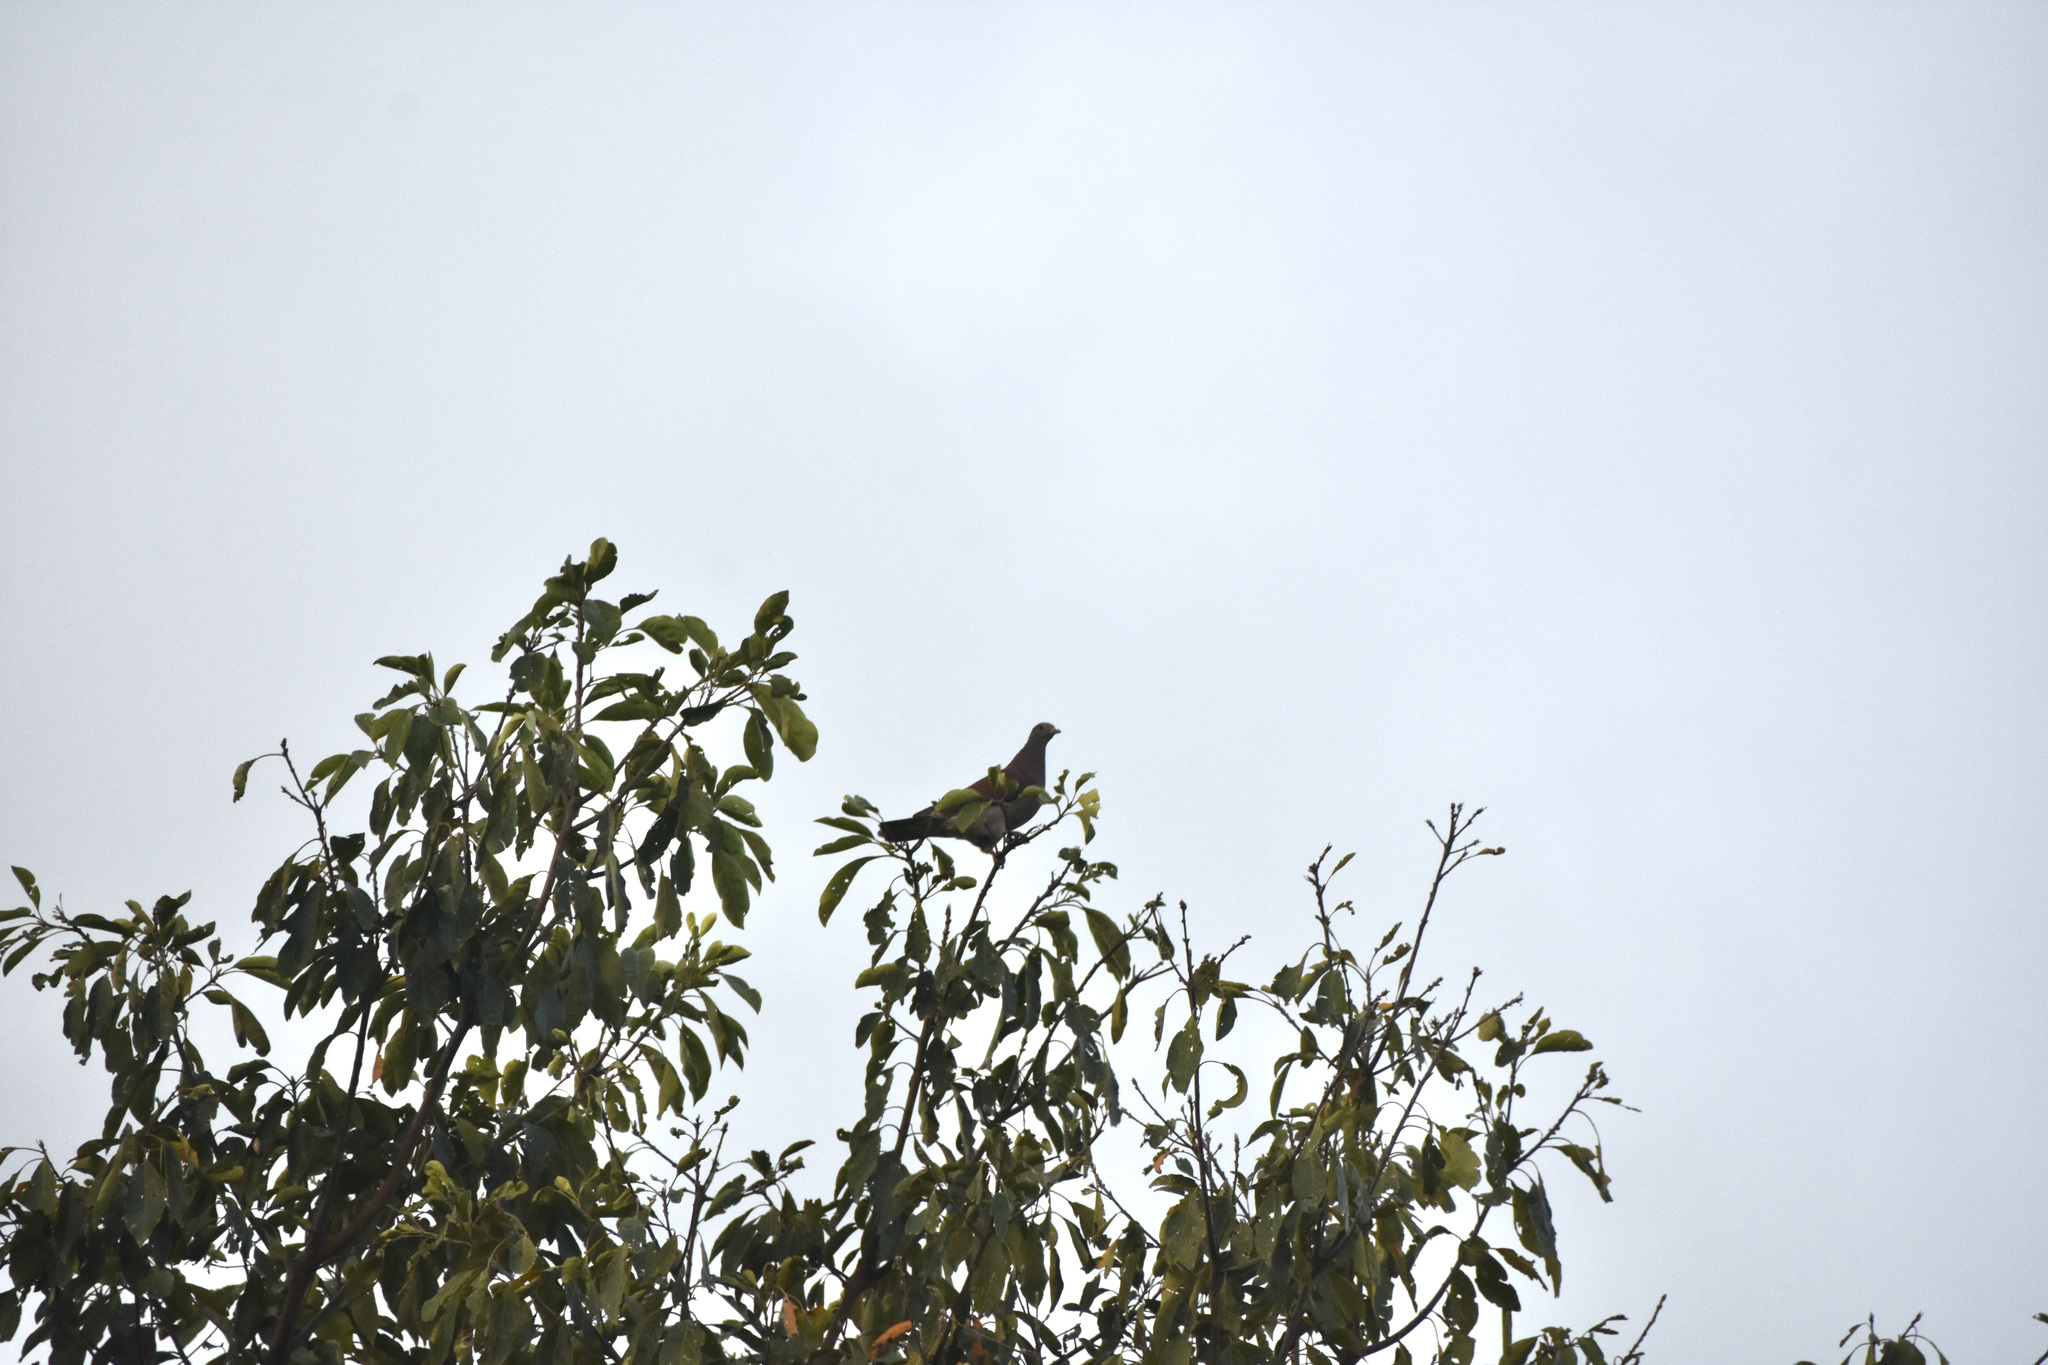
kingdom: Animalia
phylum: Chordata
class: Aves
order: Columbiformes
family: Columbidae
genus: Patagioenas
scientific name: Patagioenas cayennensis
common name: Pale-vented pigeon
